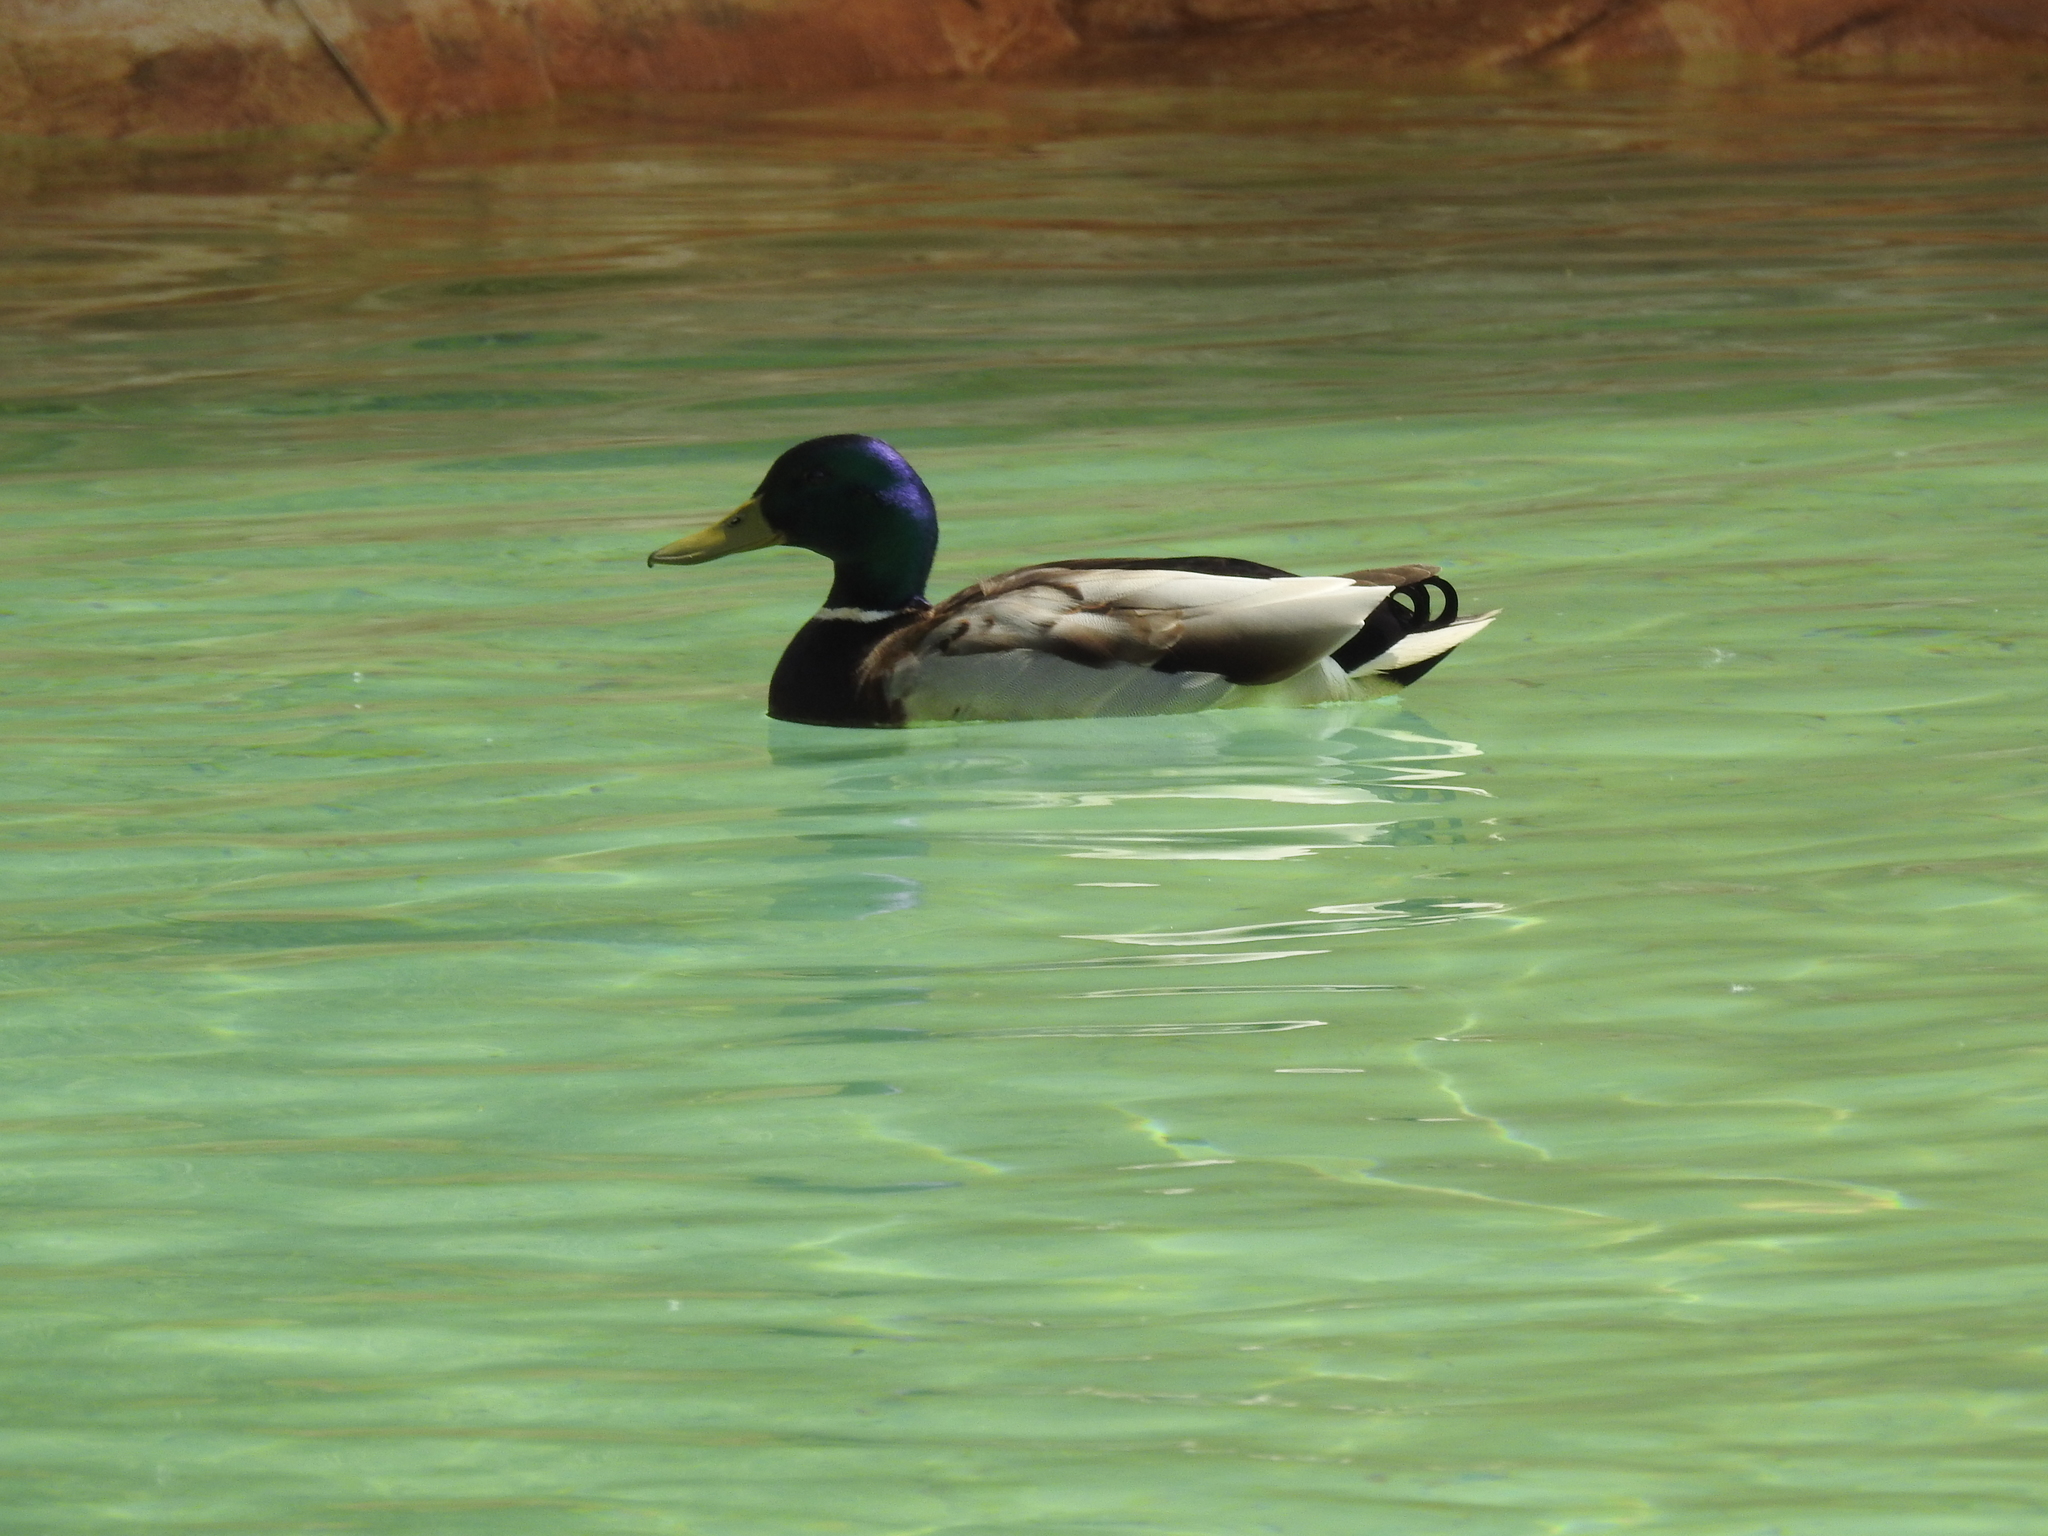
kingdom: Animalia
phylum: Chordata
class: Aves
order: Anseriformes
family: Anatidae
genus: Anas
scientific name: Anas platyrhynchos
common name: Mallard
